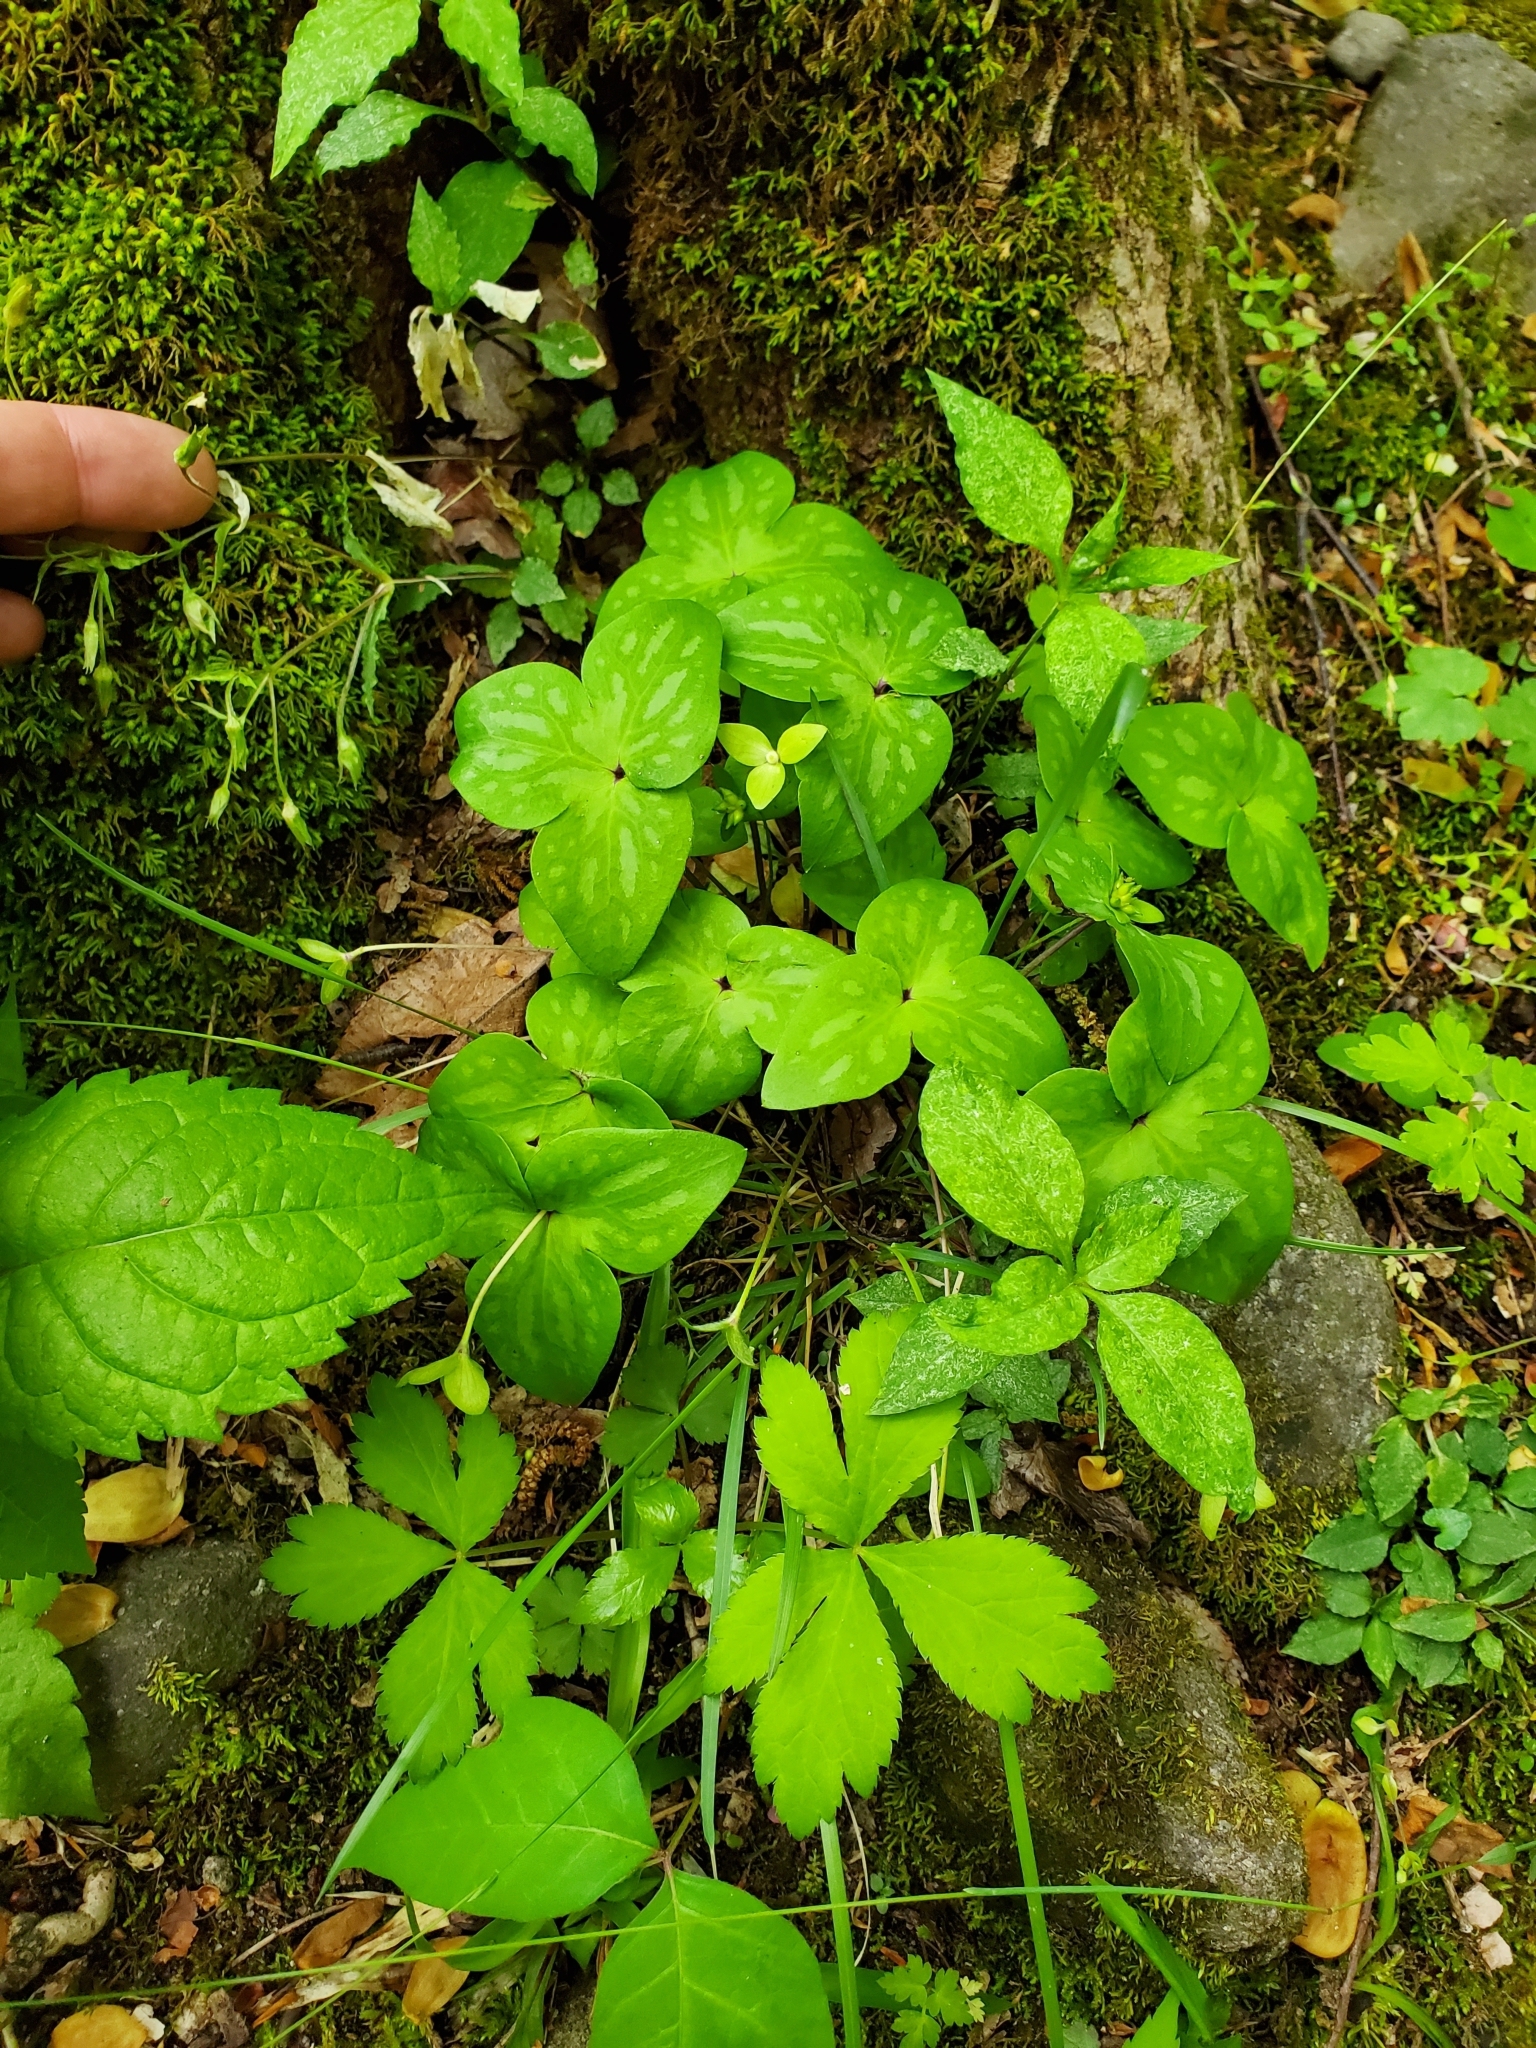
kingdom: Plantae
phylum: Tracheophyta
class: Magnoliopsida
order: Ranunculales
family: Ranunculaceae
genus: Hepatica
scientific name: Hepatica acutiloba
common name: Sharp-lobed hepatica
